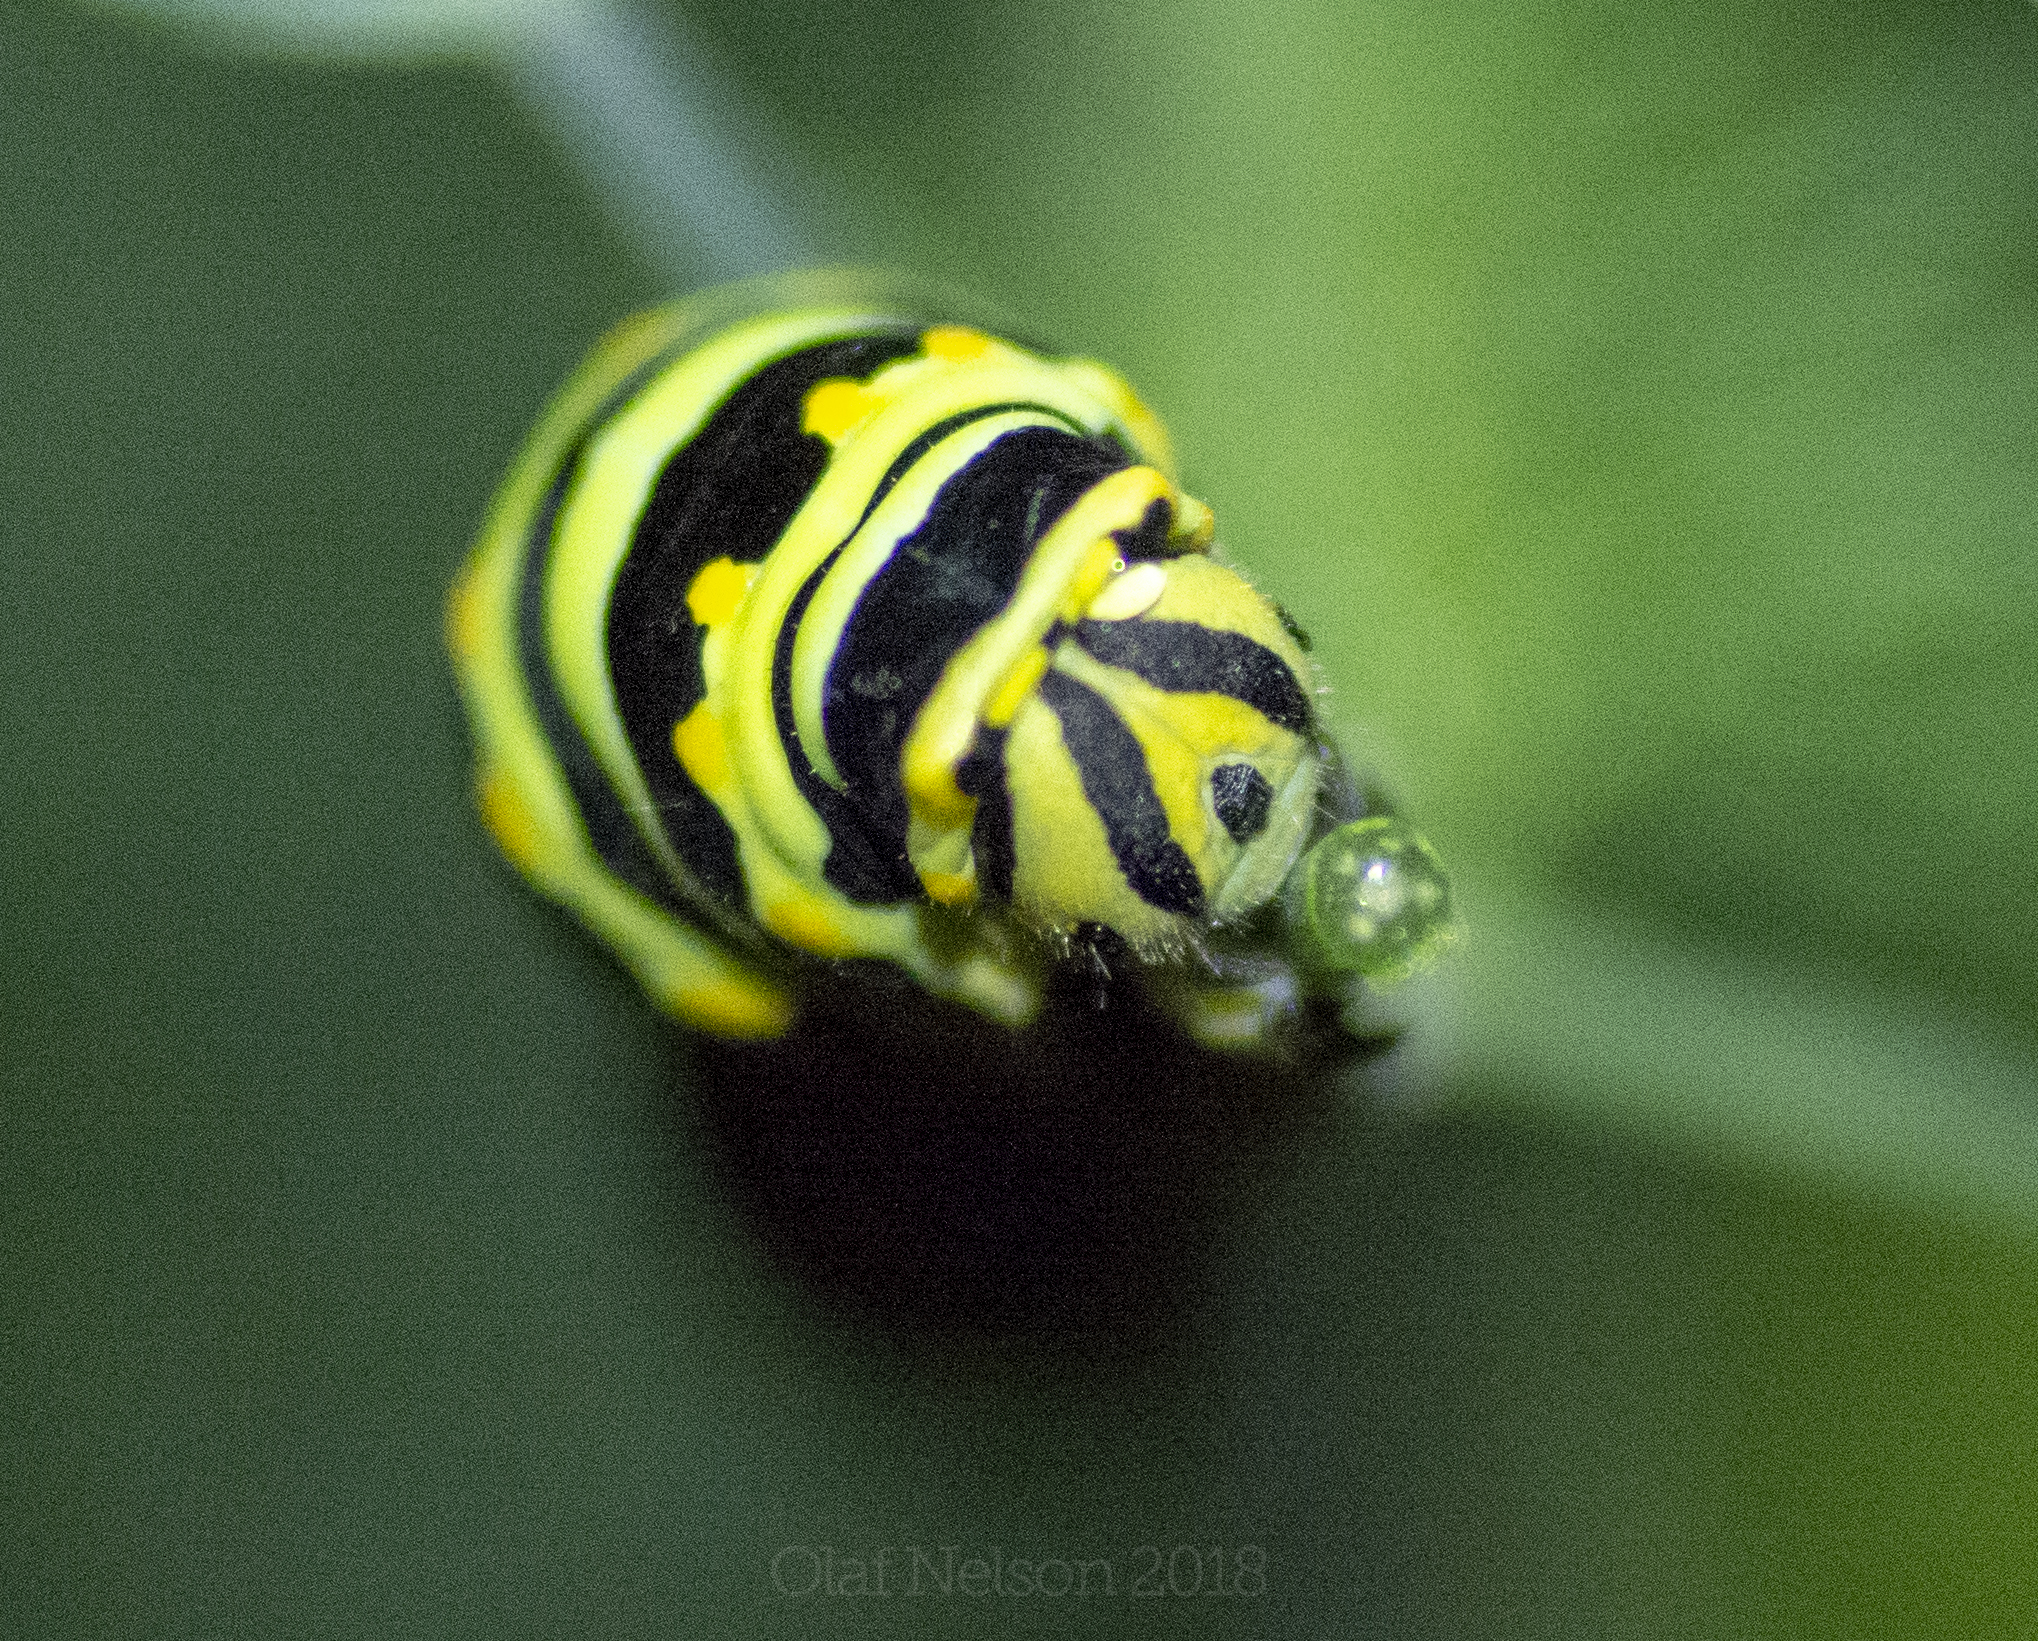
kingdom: Animalia
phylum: Arthropoda
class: Insecta
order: Lepidoptera
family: Papilionidae
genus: Papilio
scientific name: Papilio polyxenes
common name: Black swallowtail
